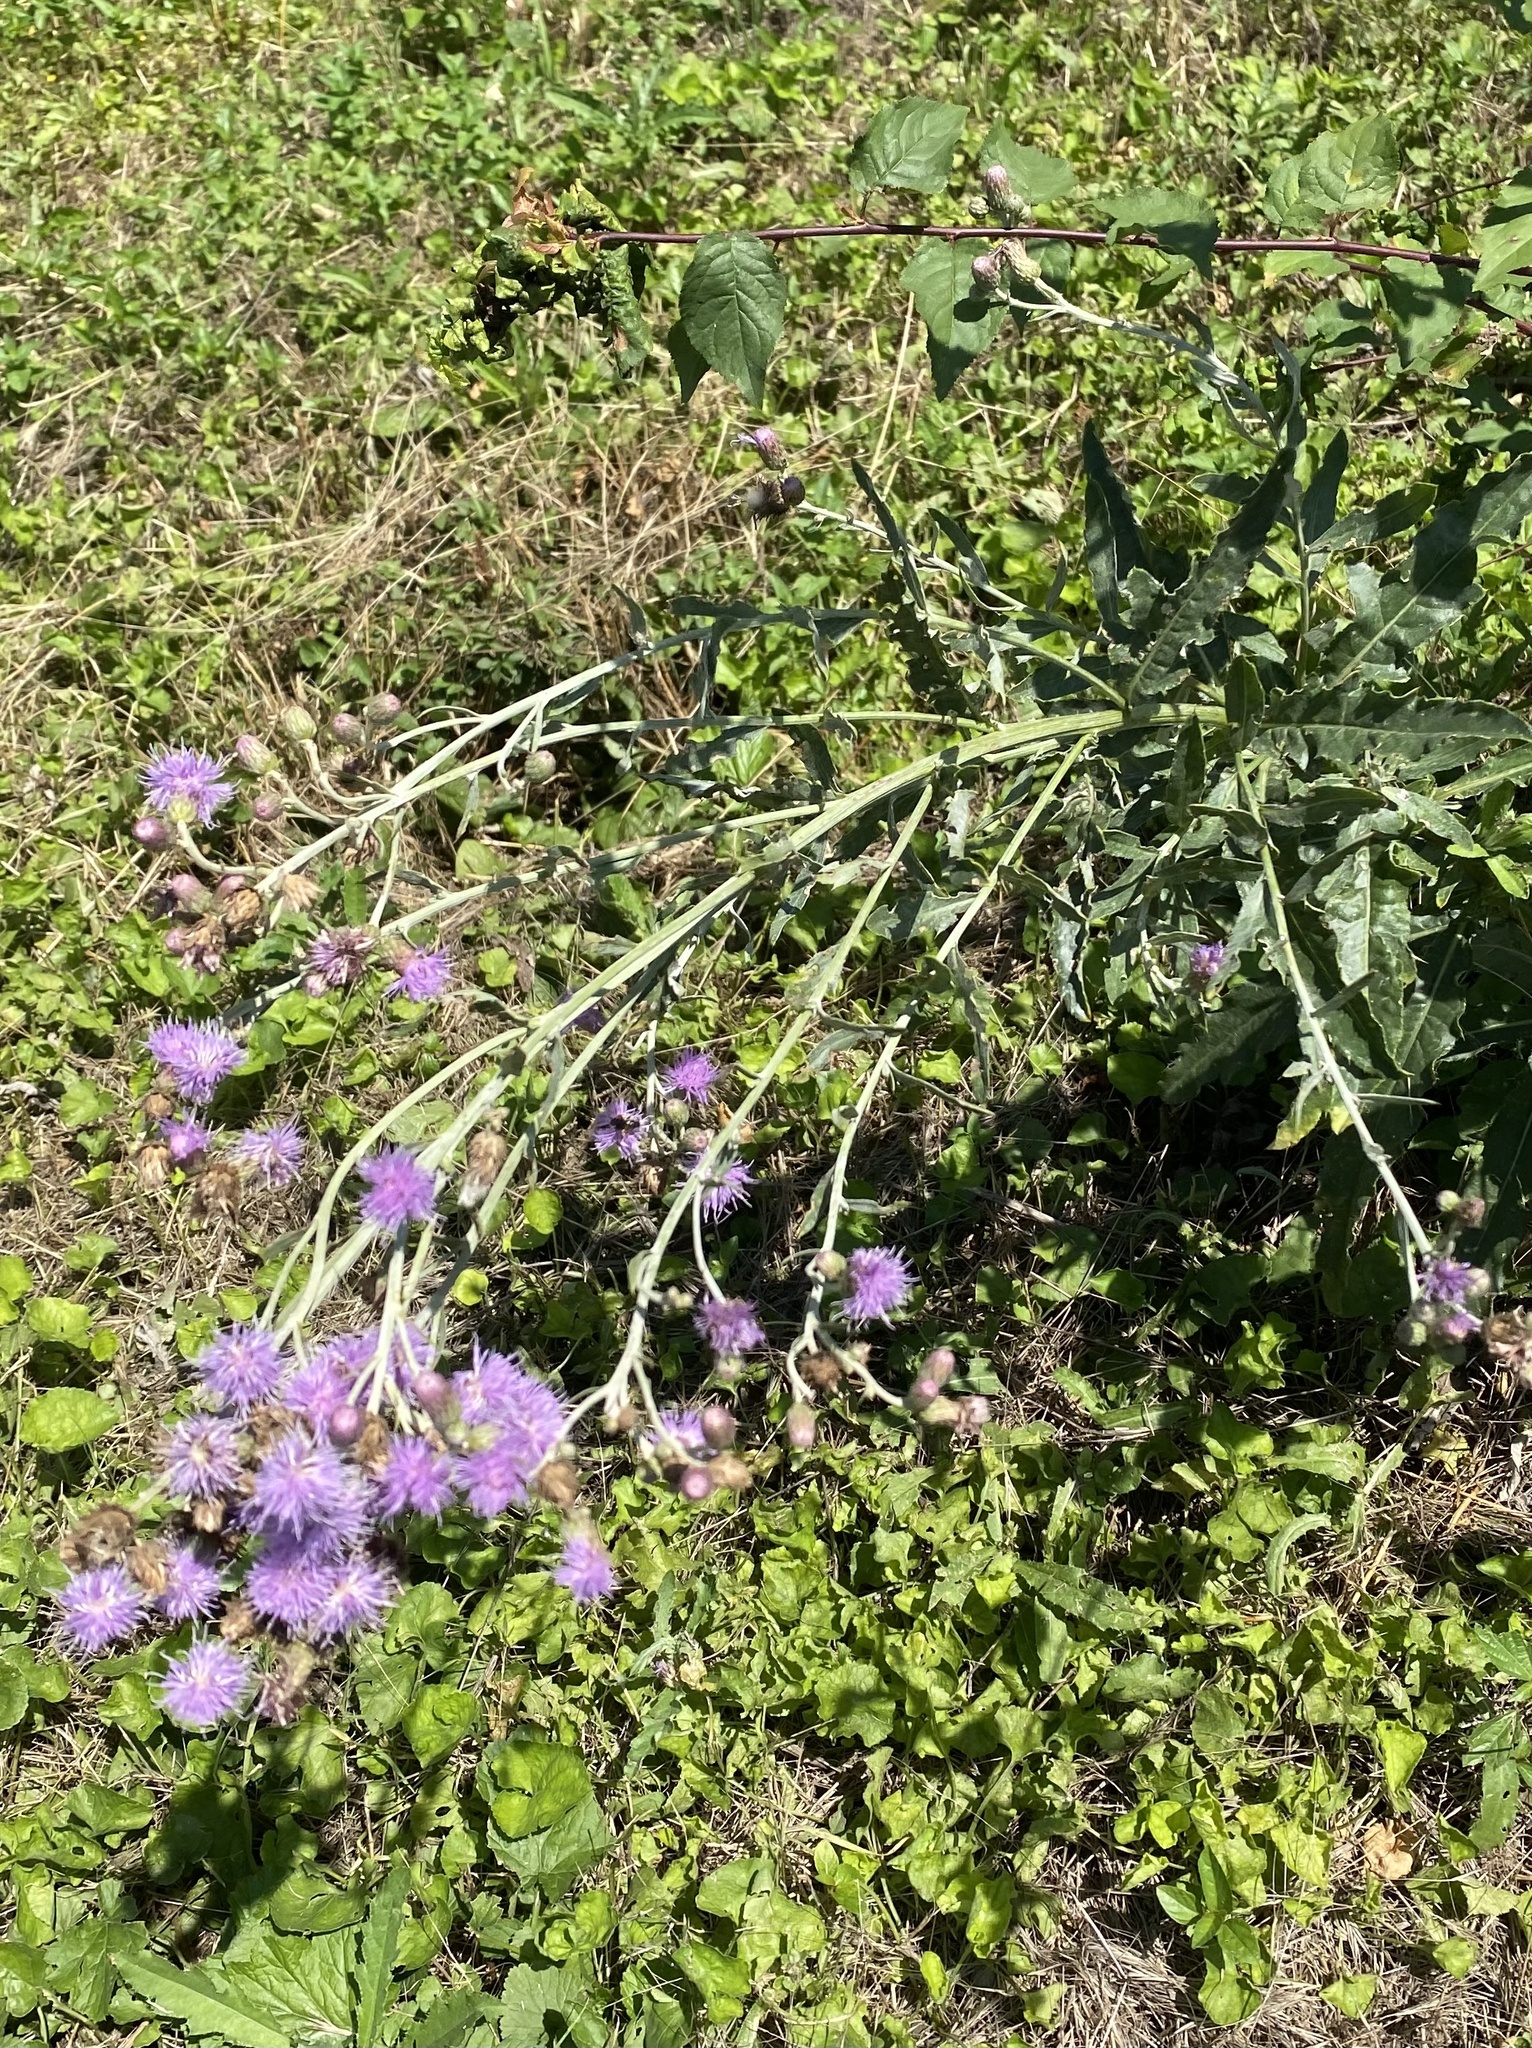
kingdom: Plantae
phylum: Tracheophyta
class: Magnoliopsida
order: Asterales
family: Asteraceae
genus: Cirsium
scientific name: Cirsium arvense
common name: Creeping thistle
